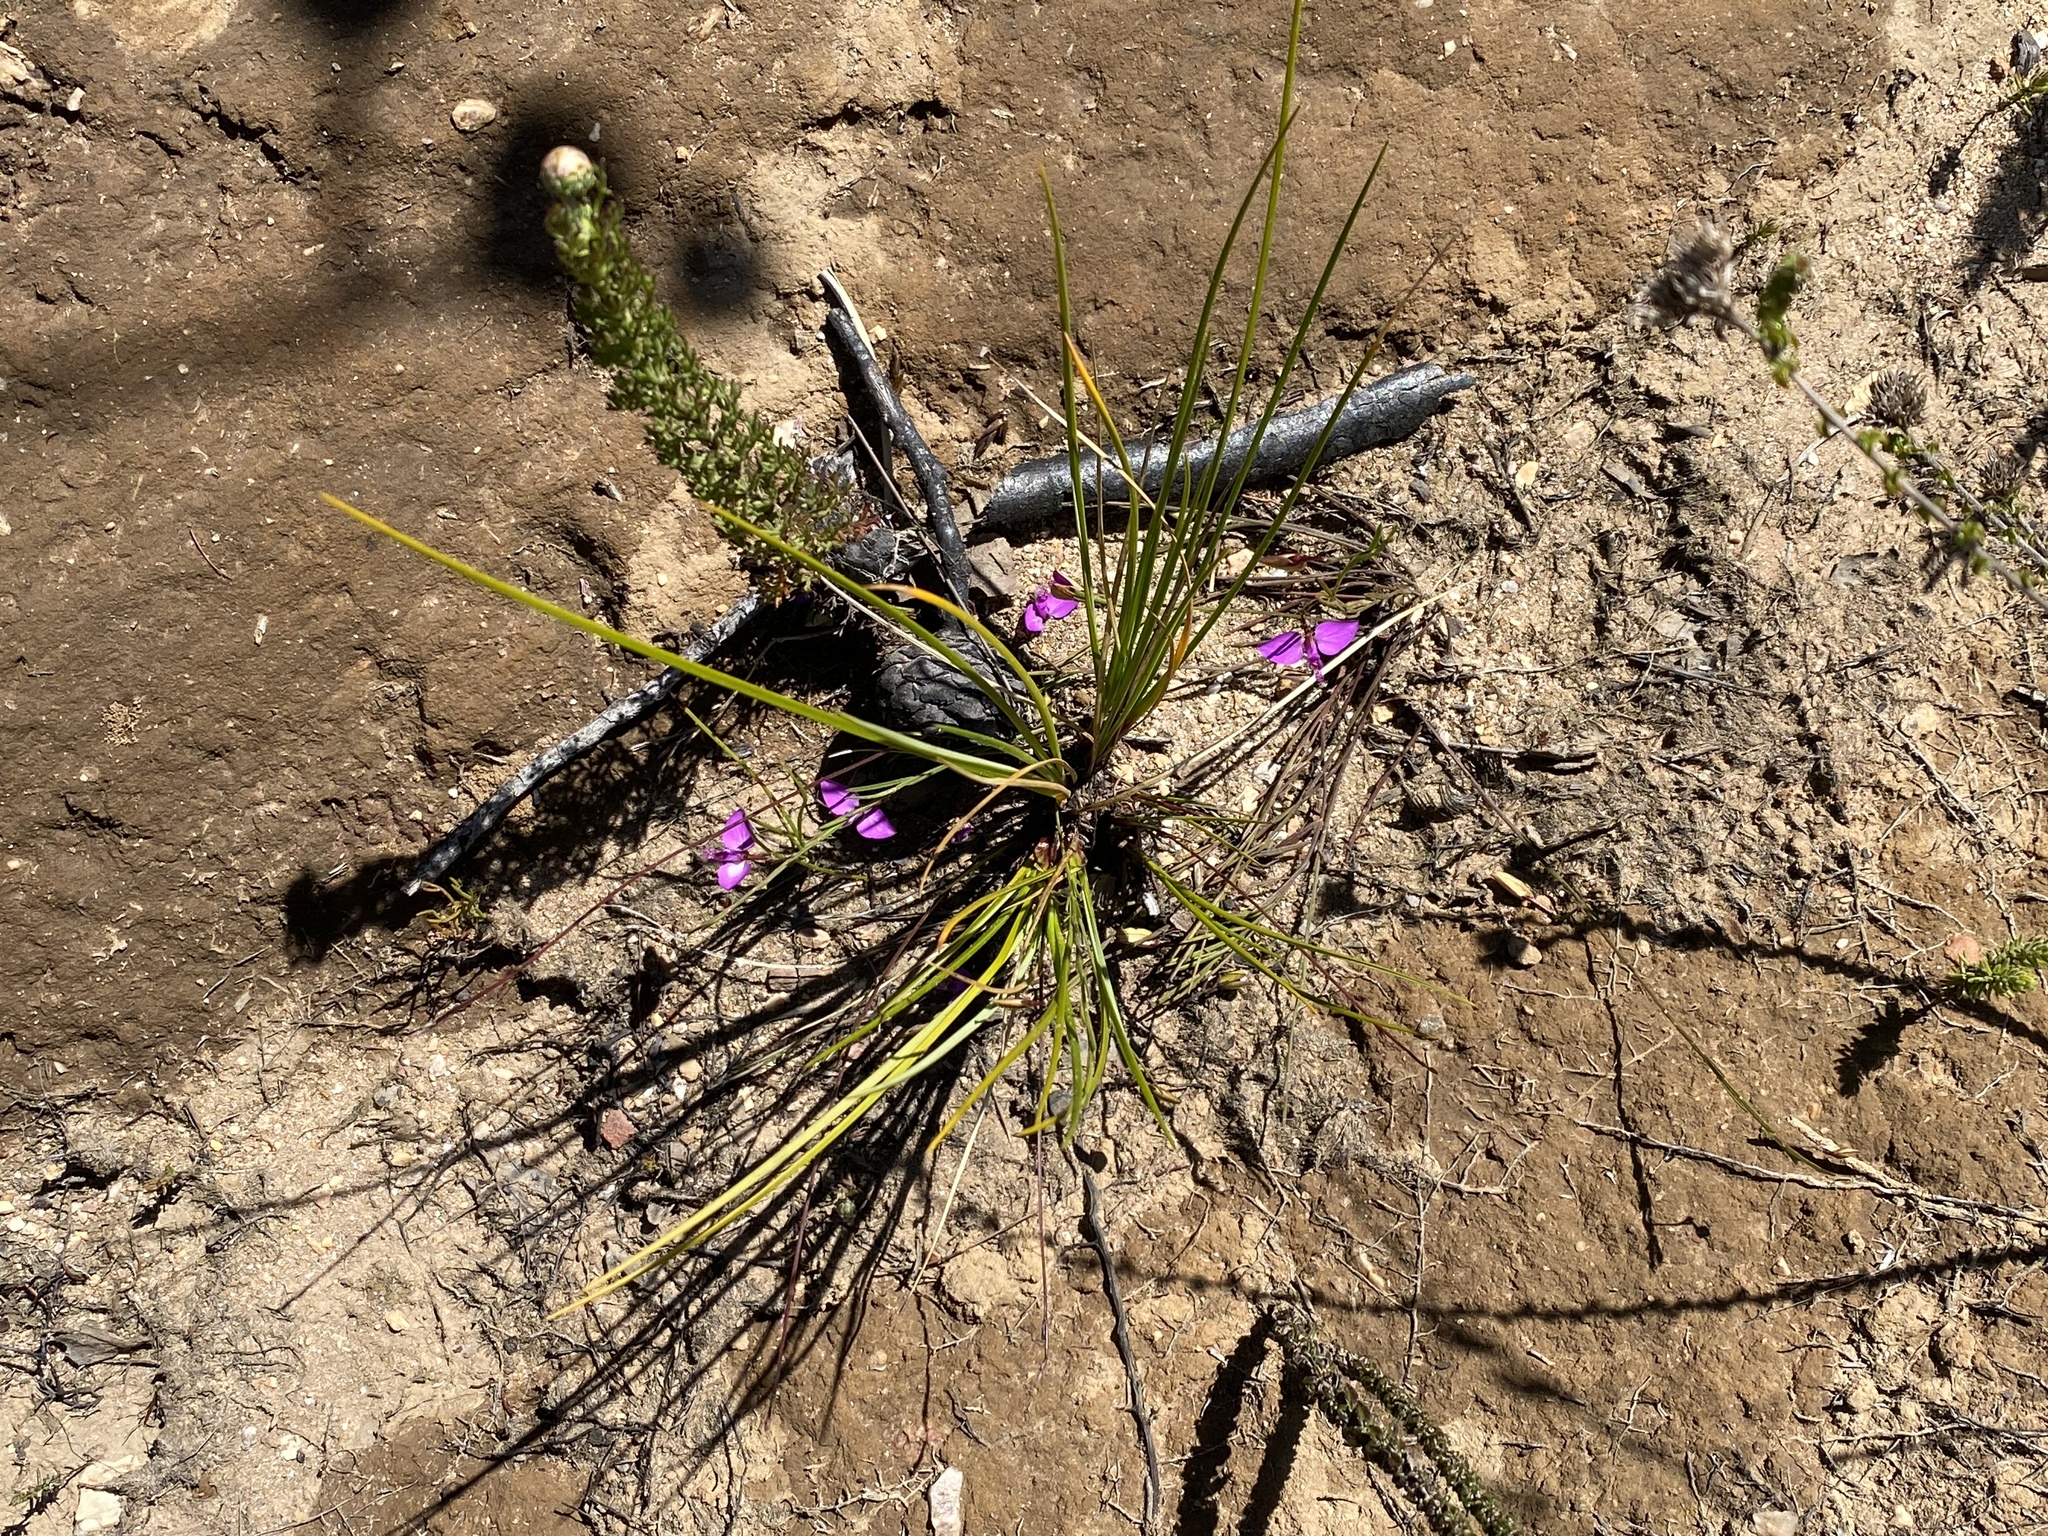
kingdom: Plantae
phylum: Tracheophyta
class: Magnoliopsida
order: Fabales
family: Polygalaceae
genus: Polygala
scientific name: Polygala refracta
